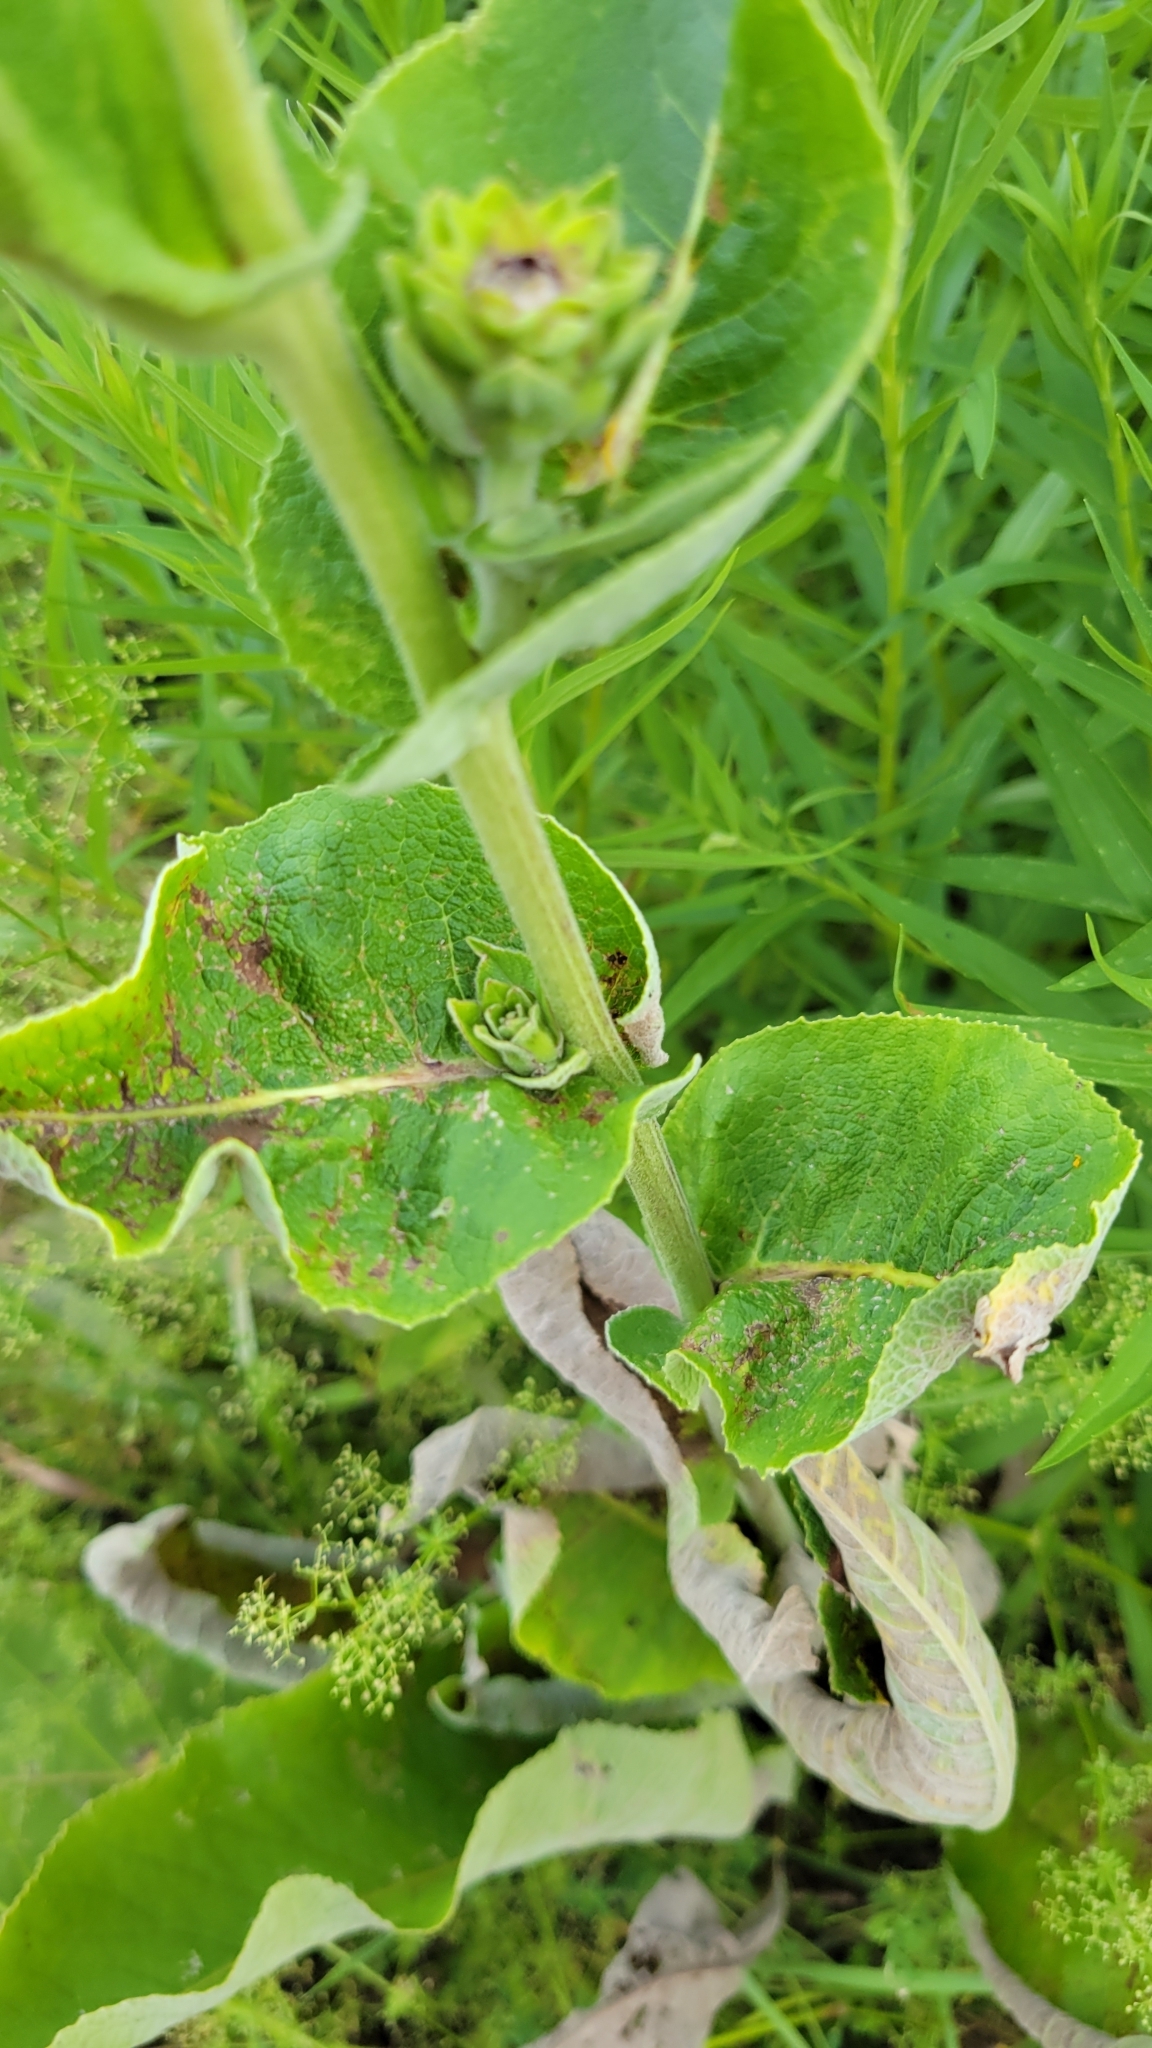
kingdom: Plantae
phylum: Tracheophyta
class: Magnoliopsida
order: Asterales
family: Asteraceae
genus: Inula
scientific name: Inula helenium
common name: Elecampane
